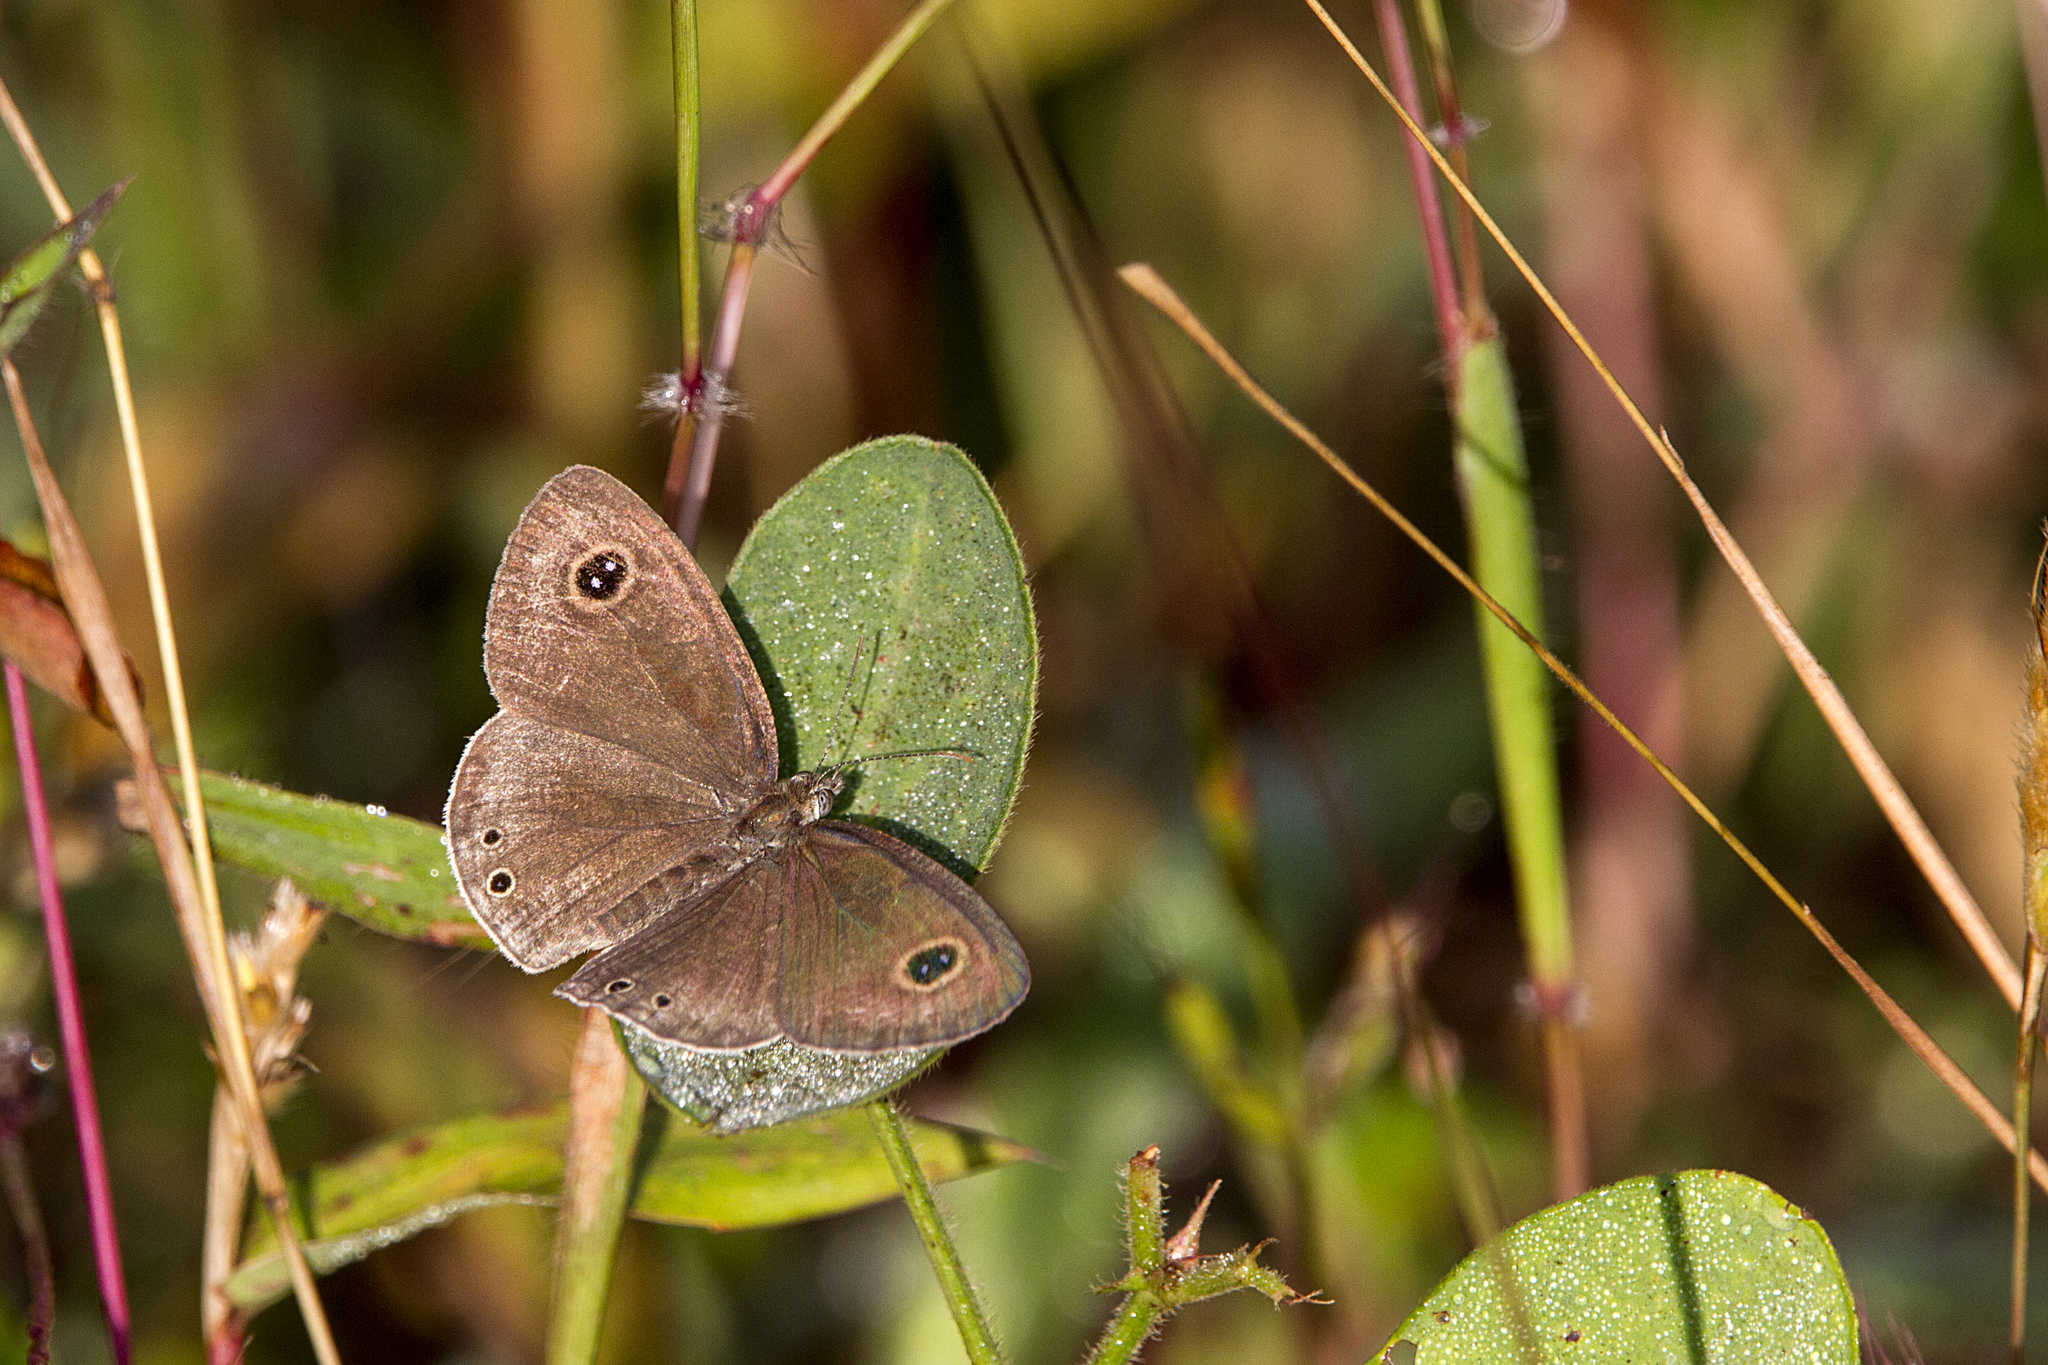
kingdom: Animalia
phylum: Arthropoda
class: Insecta
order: Lepidoptera
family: Nymphalidae
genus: Ypthima
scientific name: Ypthima huebneri
